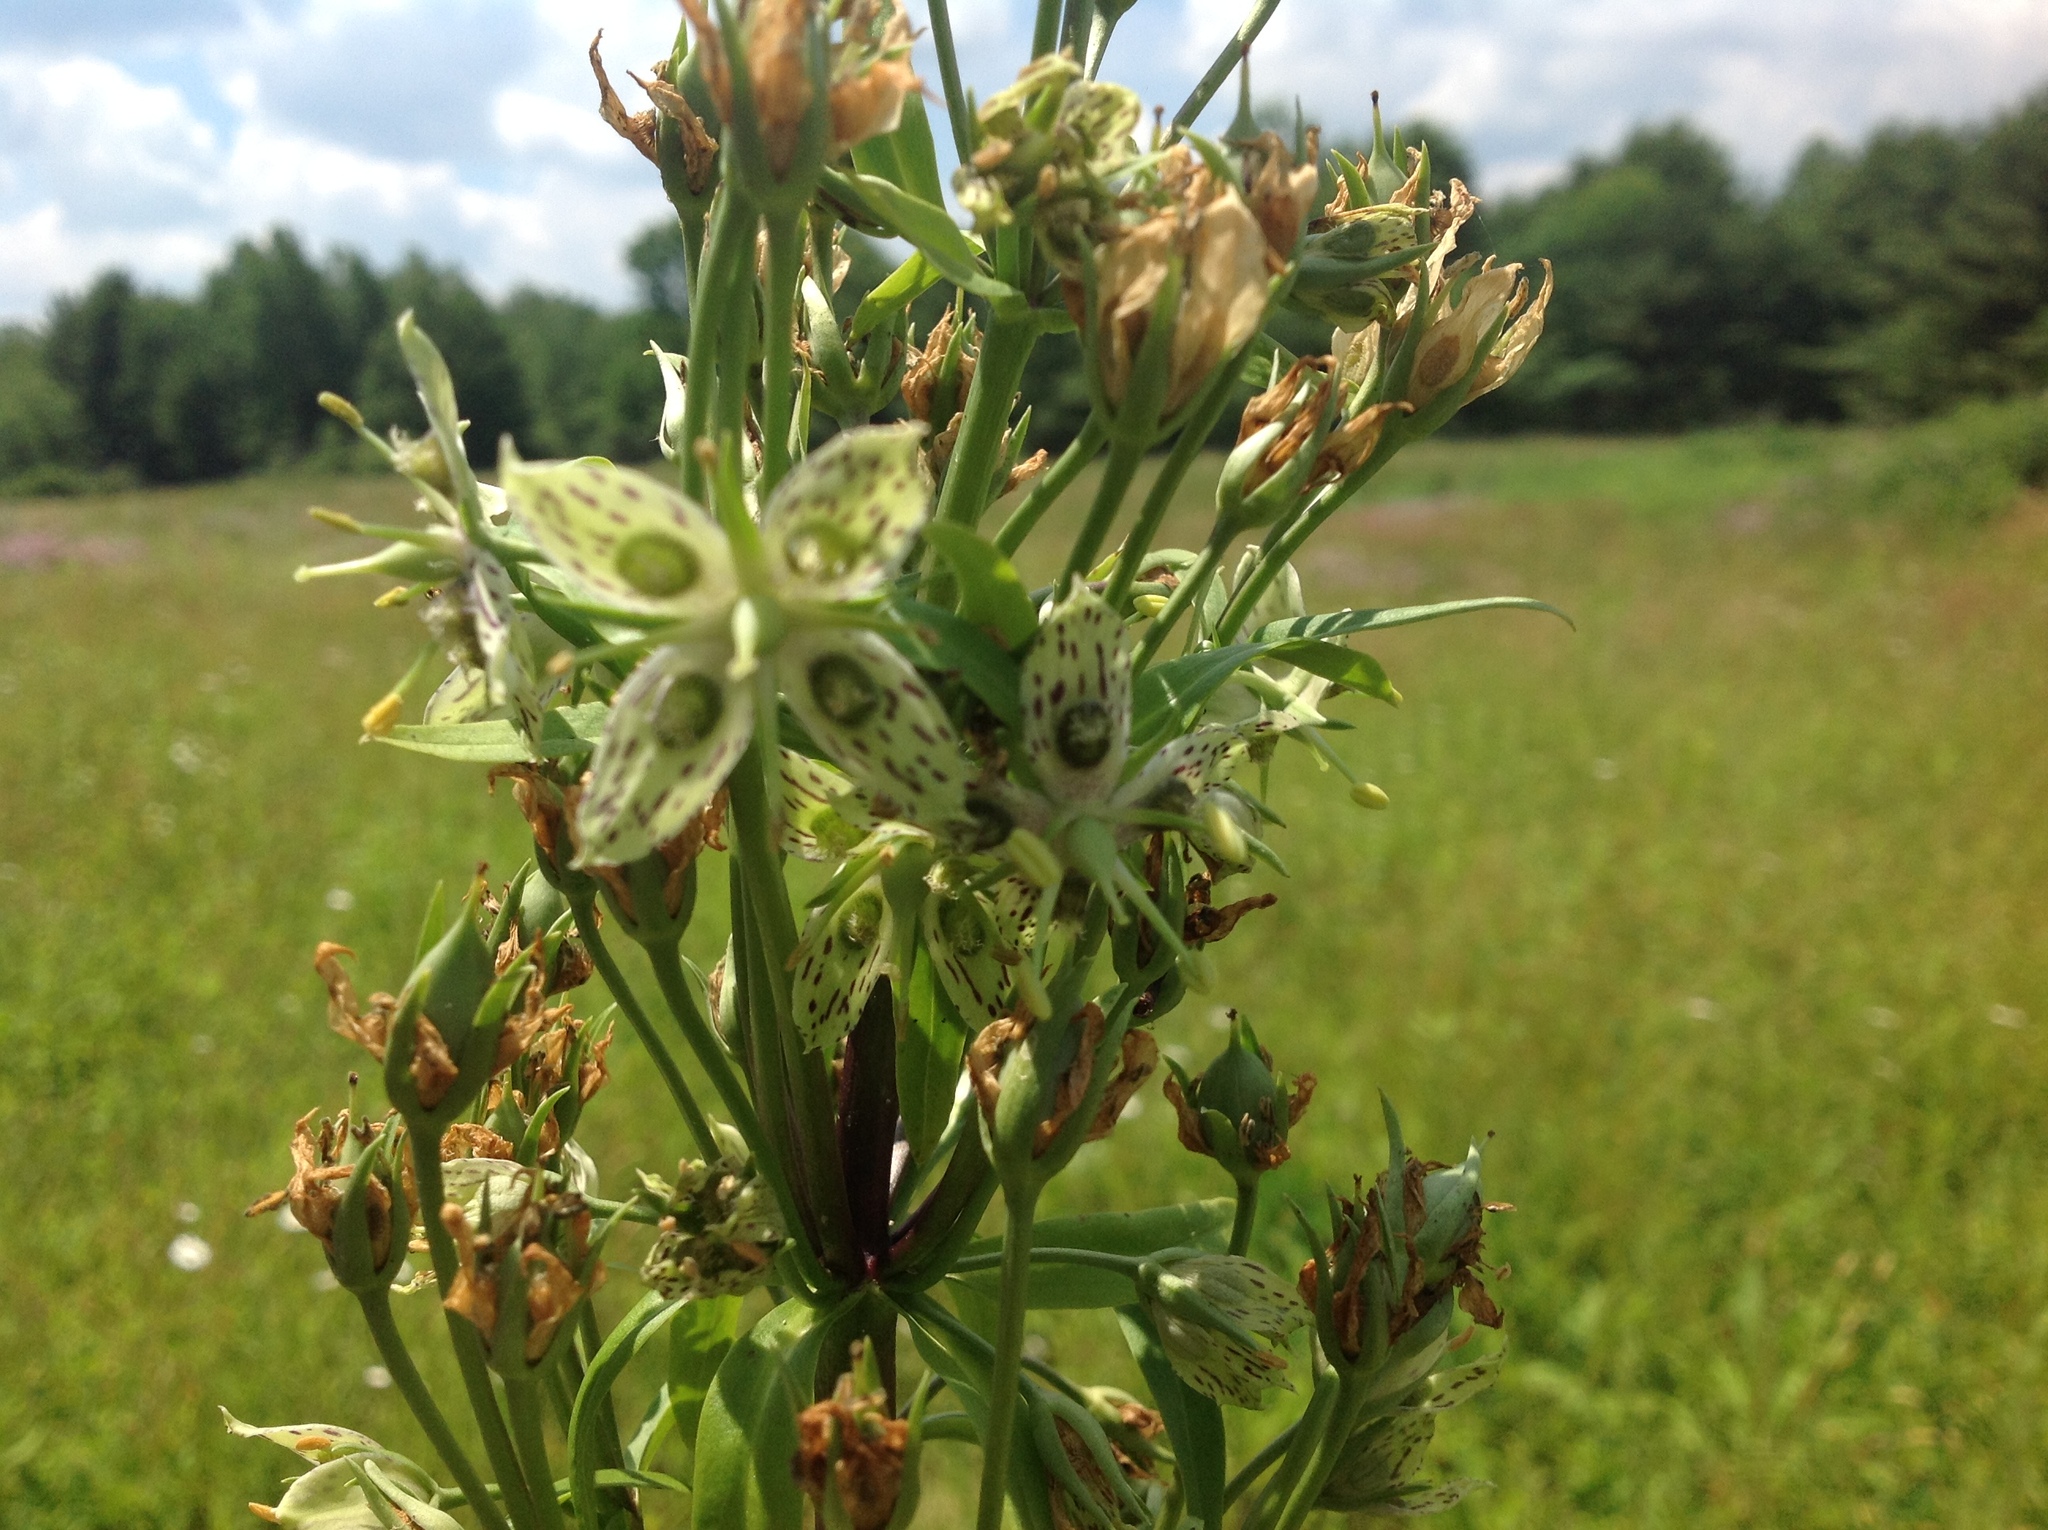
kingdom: Plantae
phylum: Tracheophyta
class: Magnoliopsida
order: Gentianales
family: Gentianaceae
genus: Frasera
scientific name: Frasera caroliniensis
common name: American columbo
